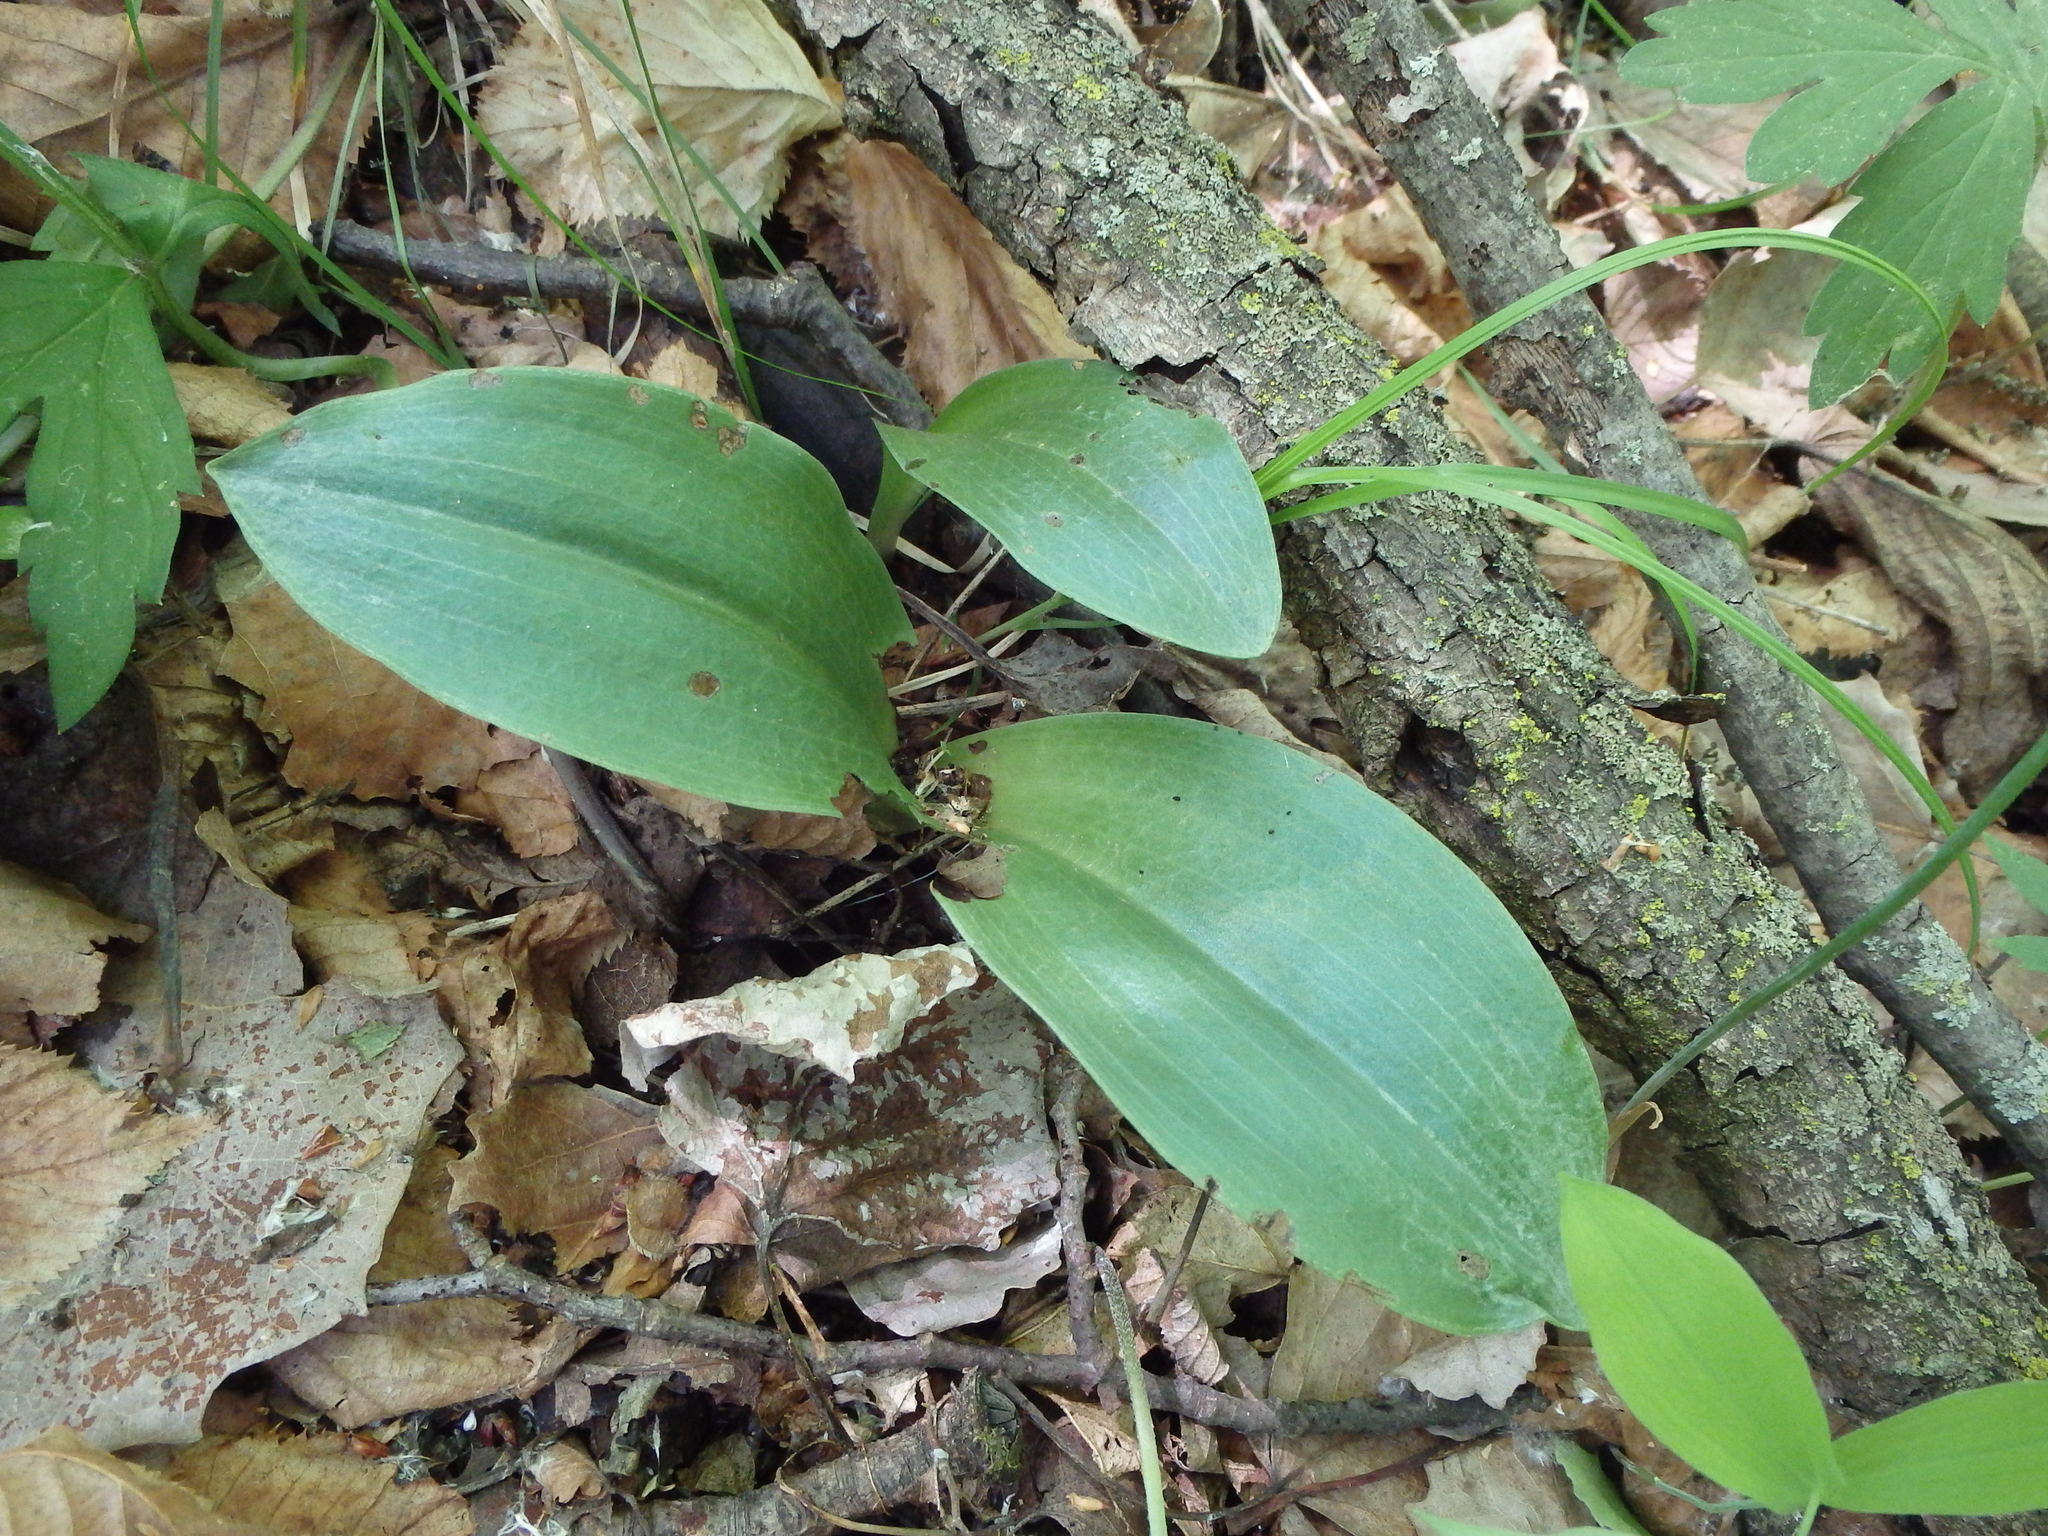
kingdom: Plantae
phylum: Tracheophyta
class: Liliopsida
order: Asparagales
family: Orchidaceae
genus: Galearis
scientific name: Galearis spectabilis
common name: Purple-hooded orchis
